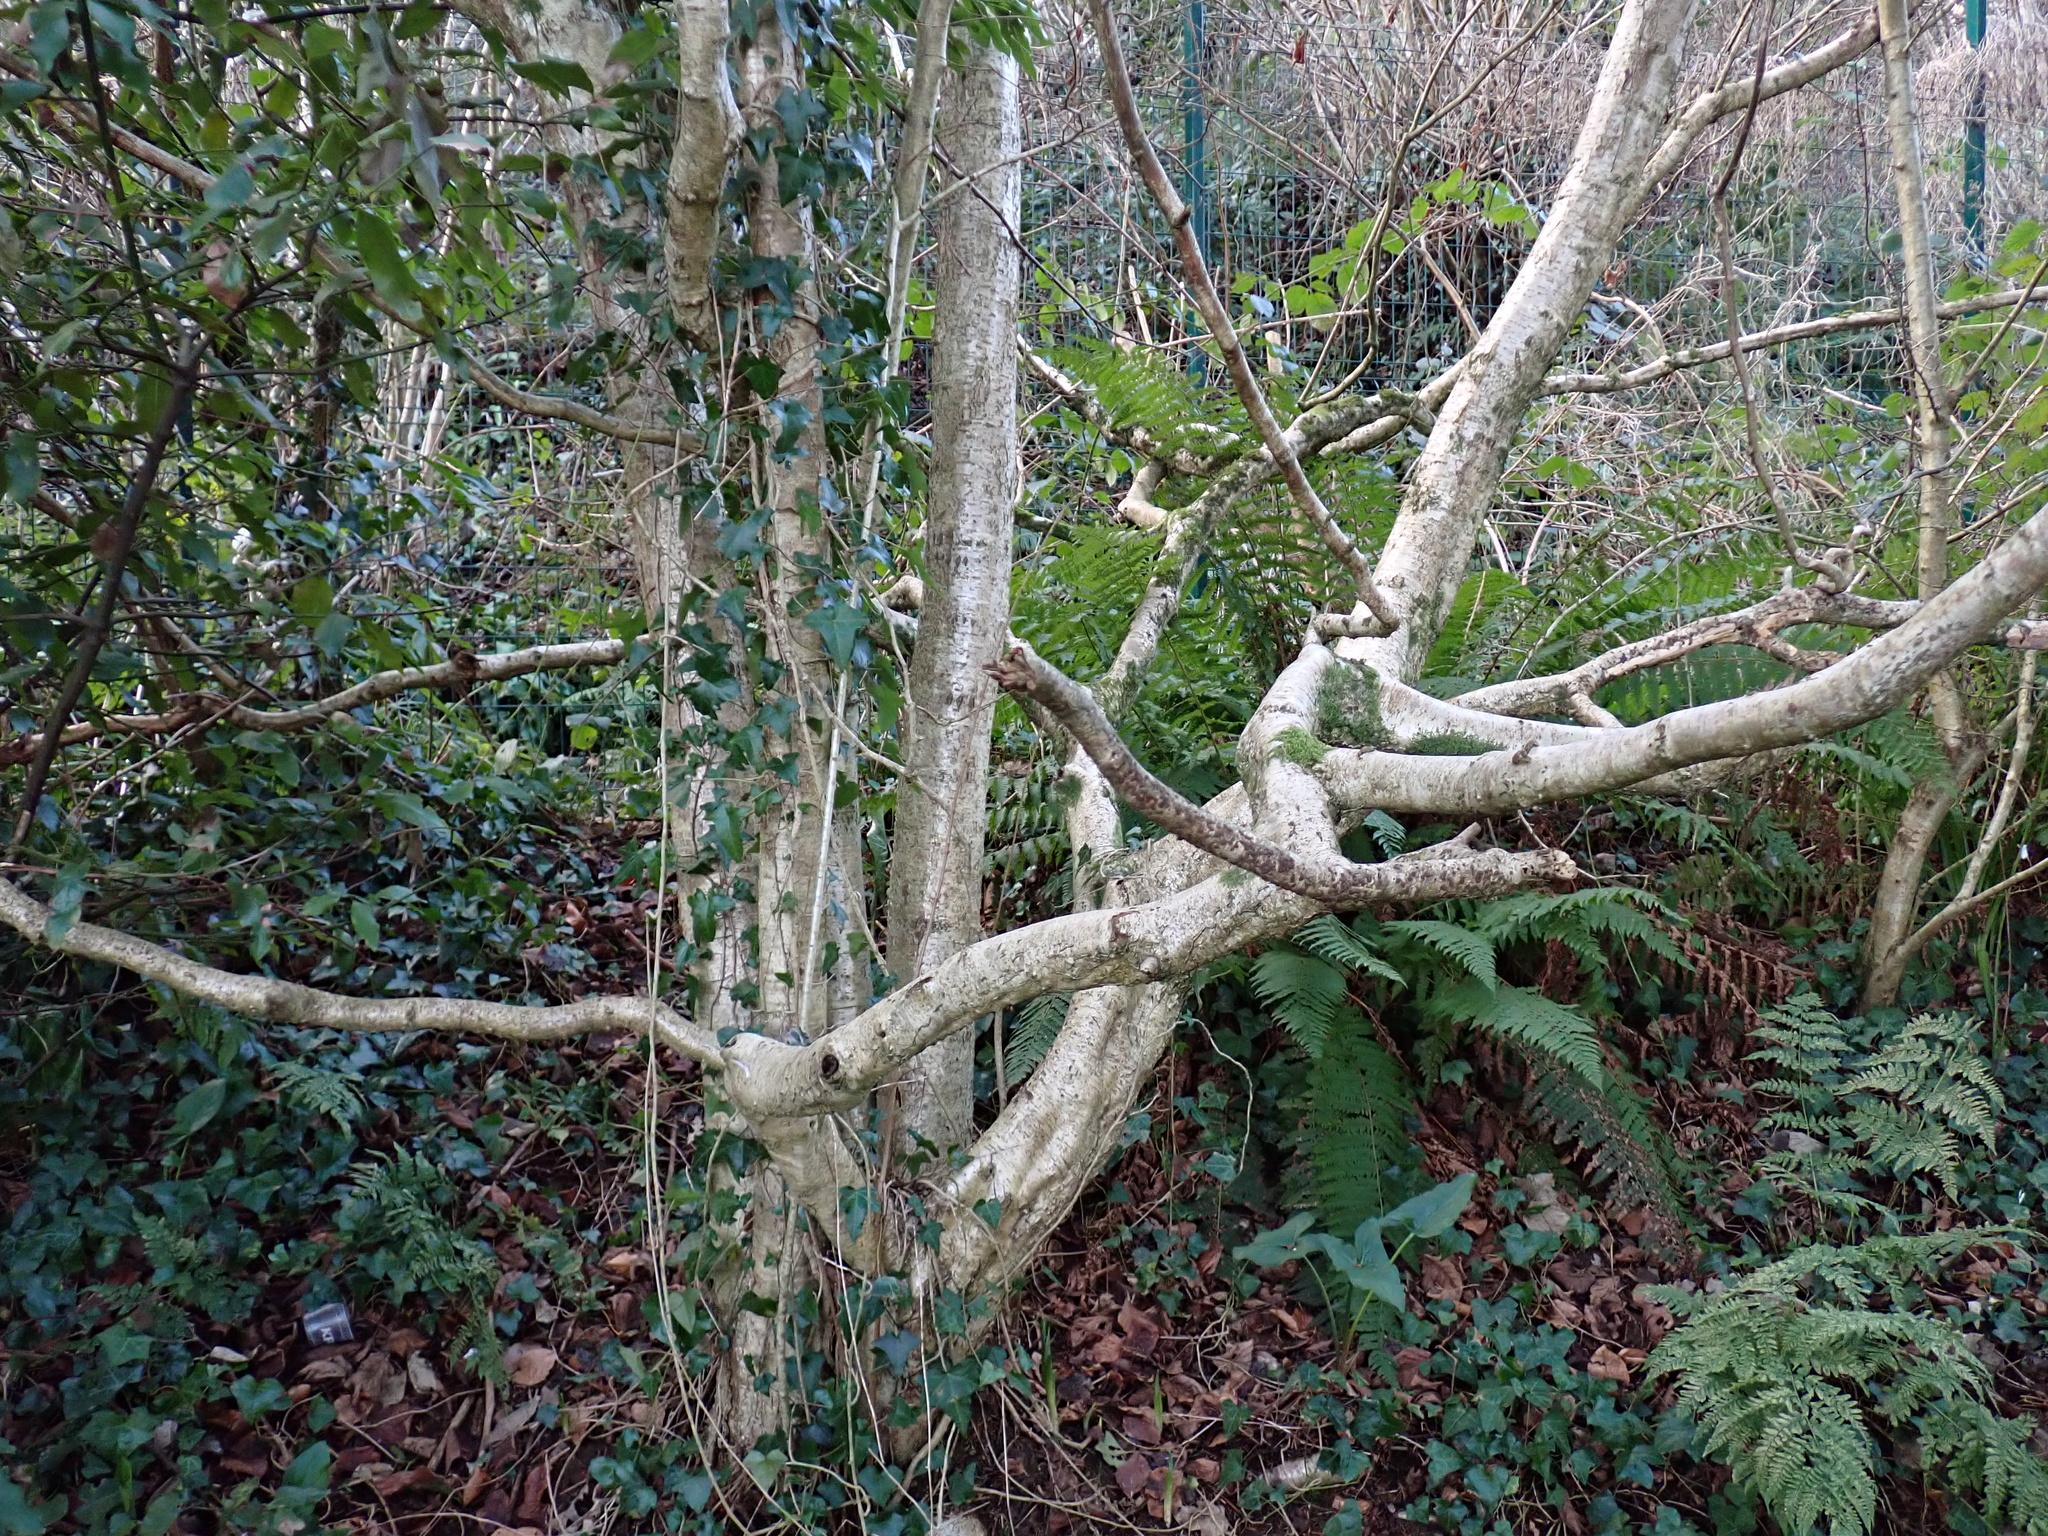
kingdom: Plantae
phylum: Tracheophyta
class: Magnoliopsida
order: Fagales
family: Betulaceae
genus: Corylus
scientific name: Corylus avellana
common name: European hazel
